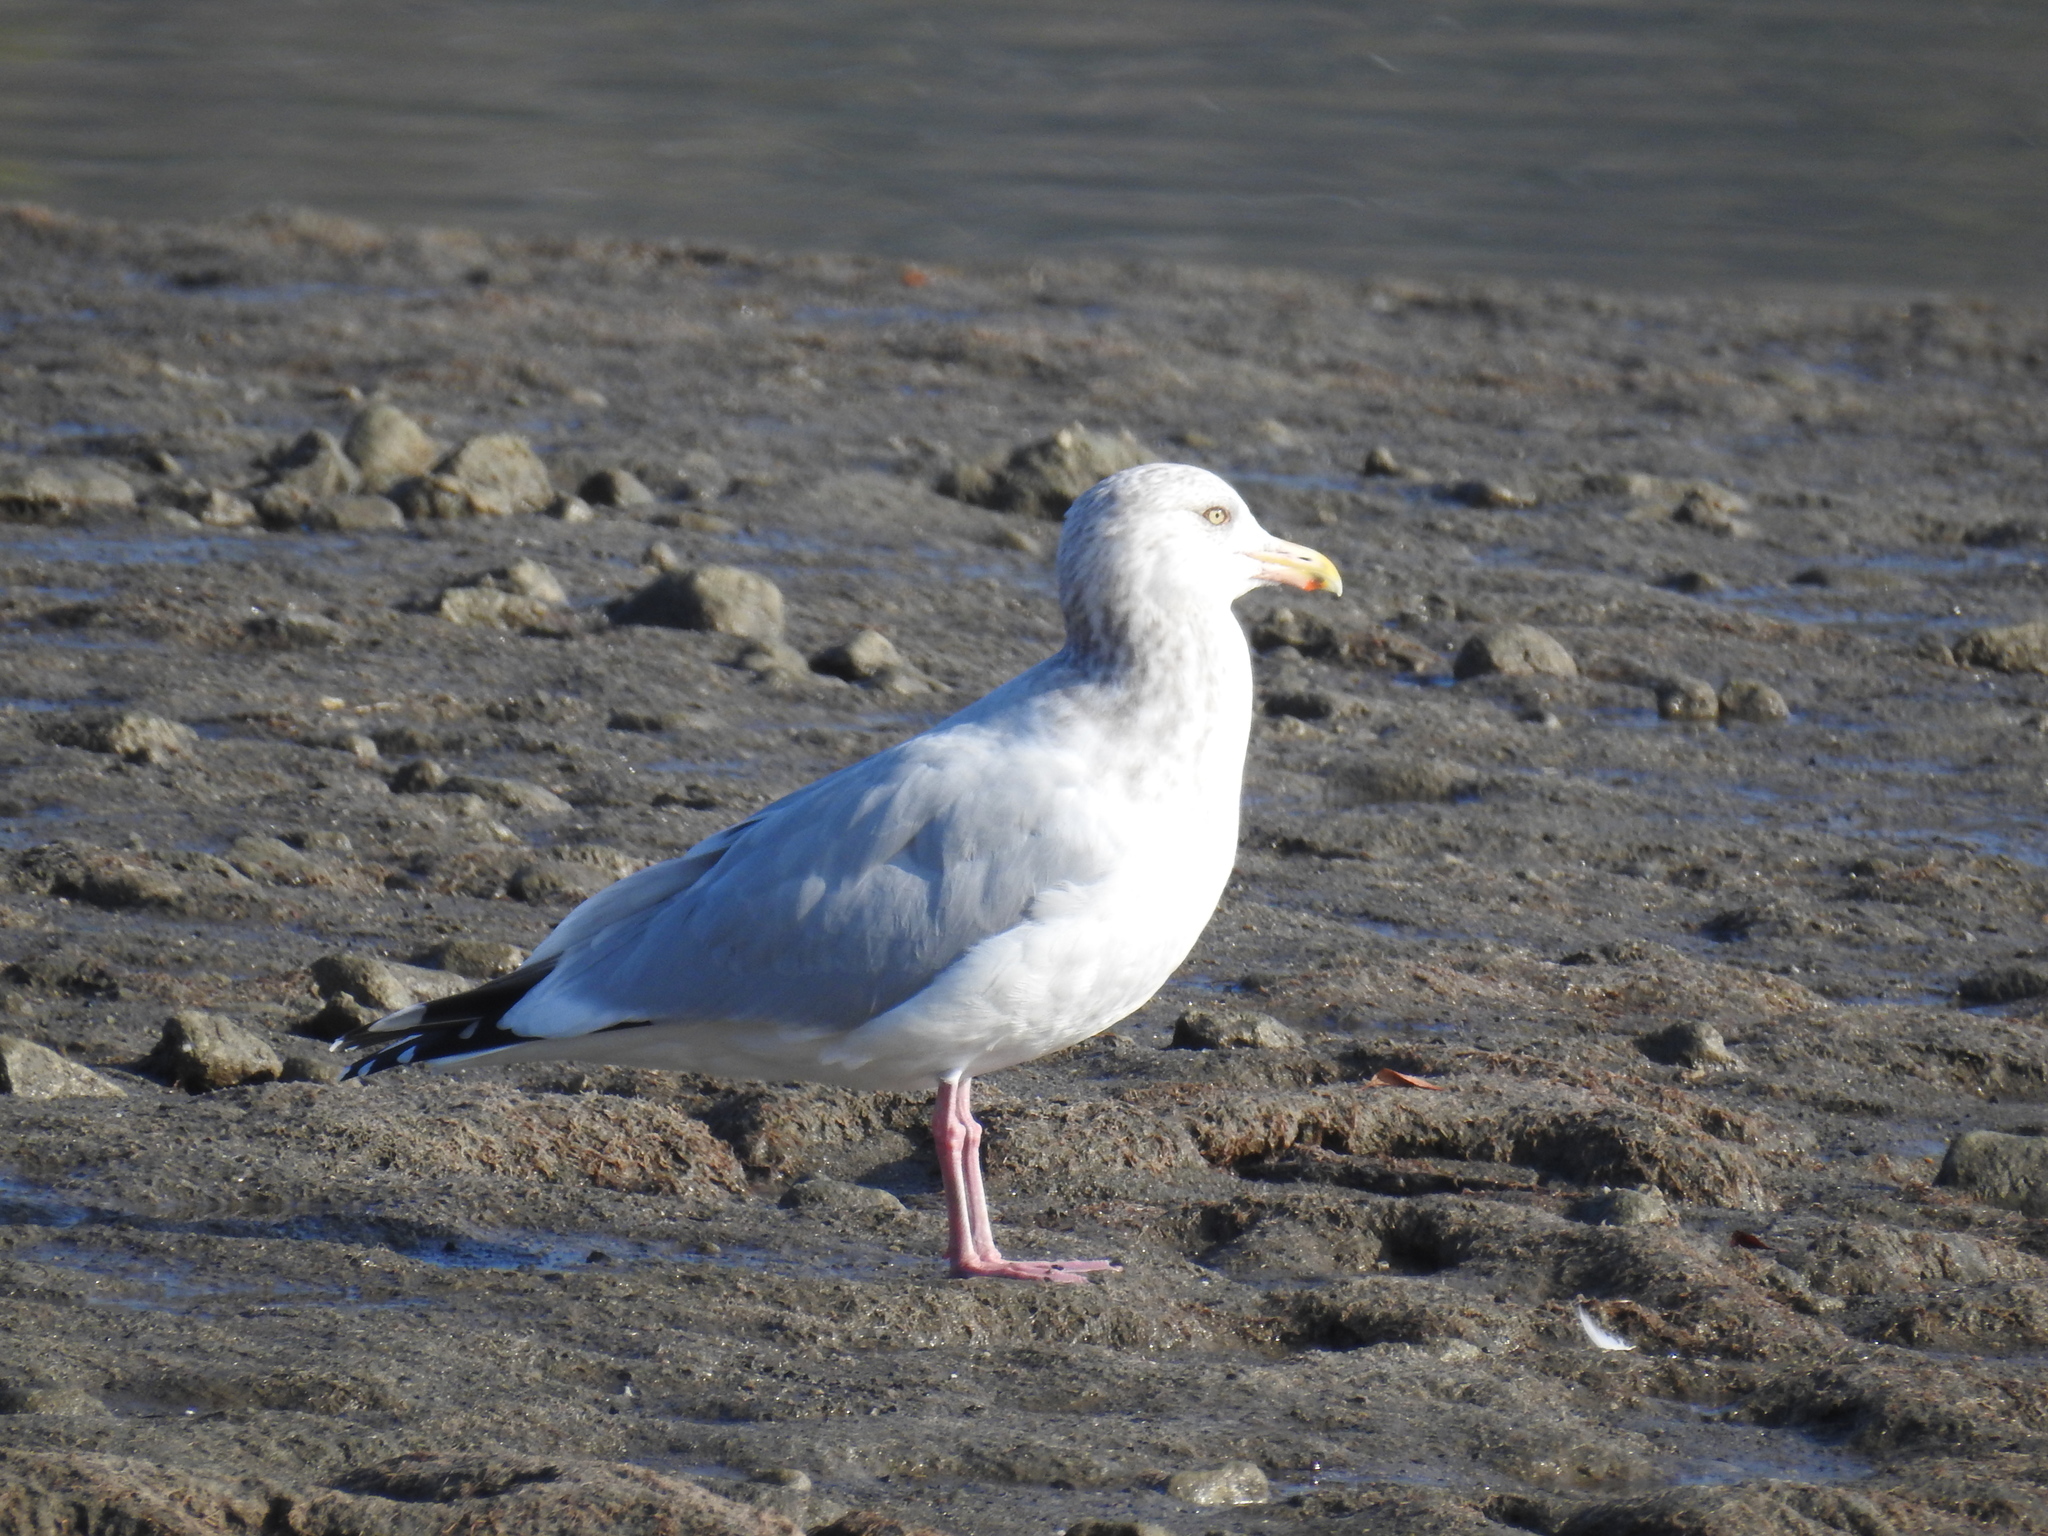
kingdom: Animalia
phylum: Chordata
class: Aves
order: Charadriiformes
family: Laridae
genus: Larus
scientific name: Larus argentatus
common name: Herring gull
